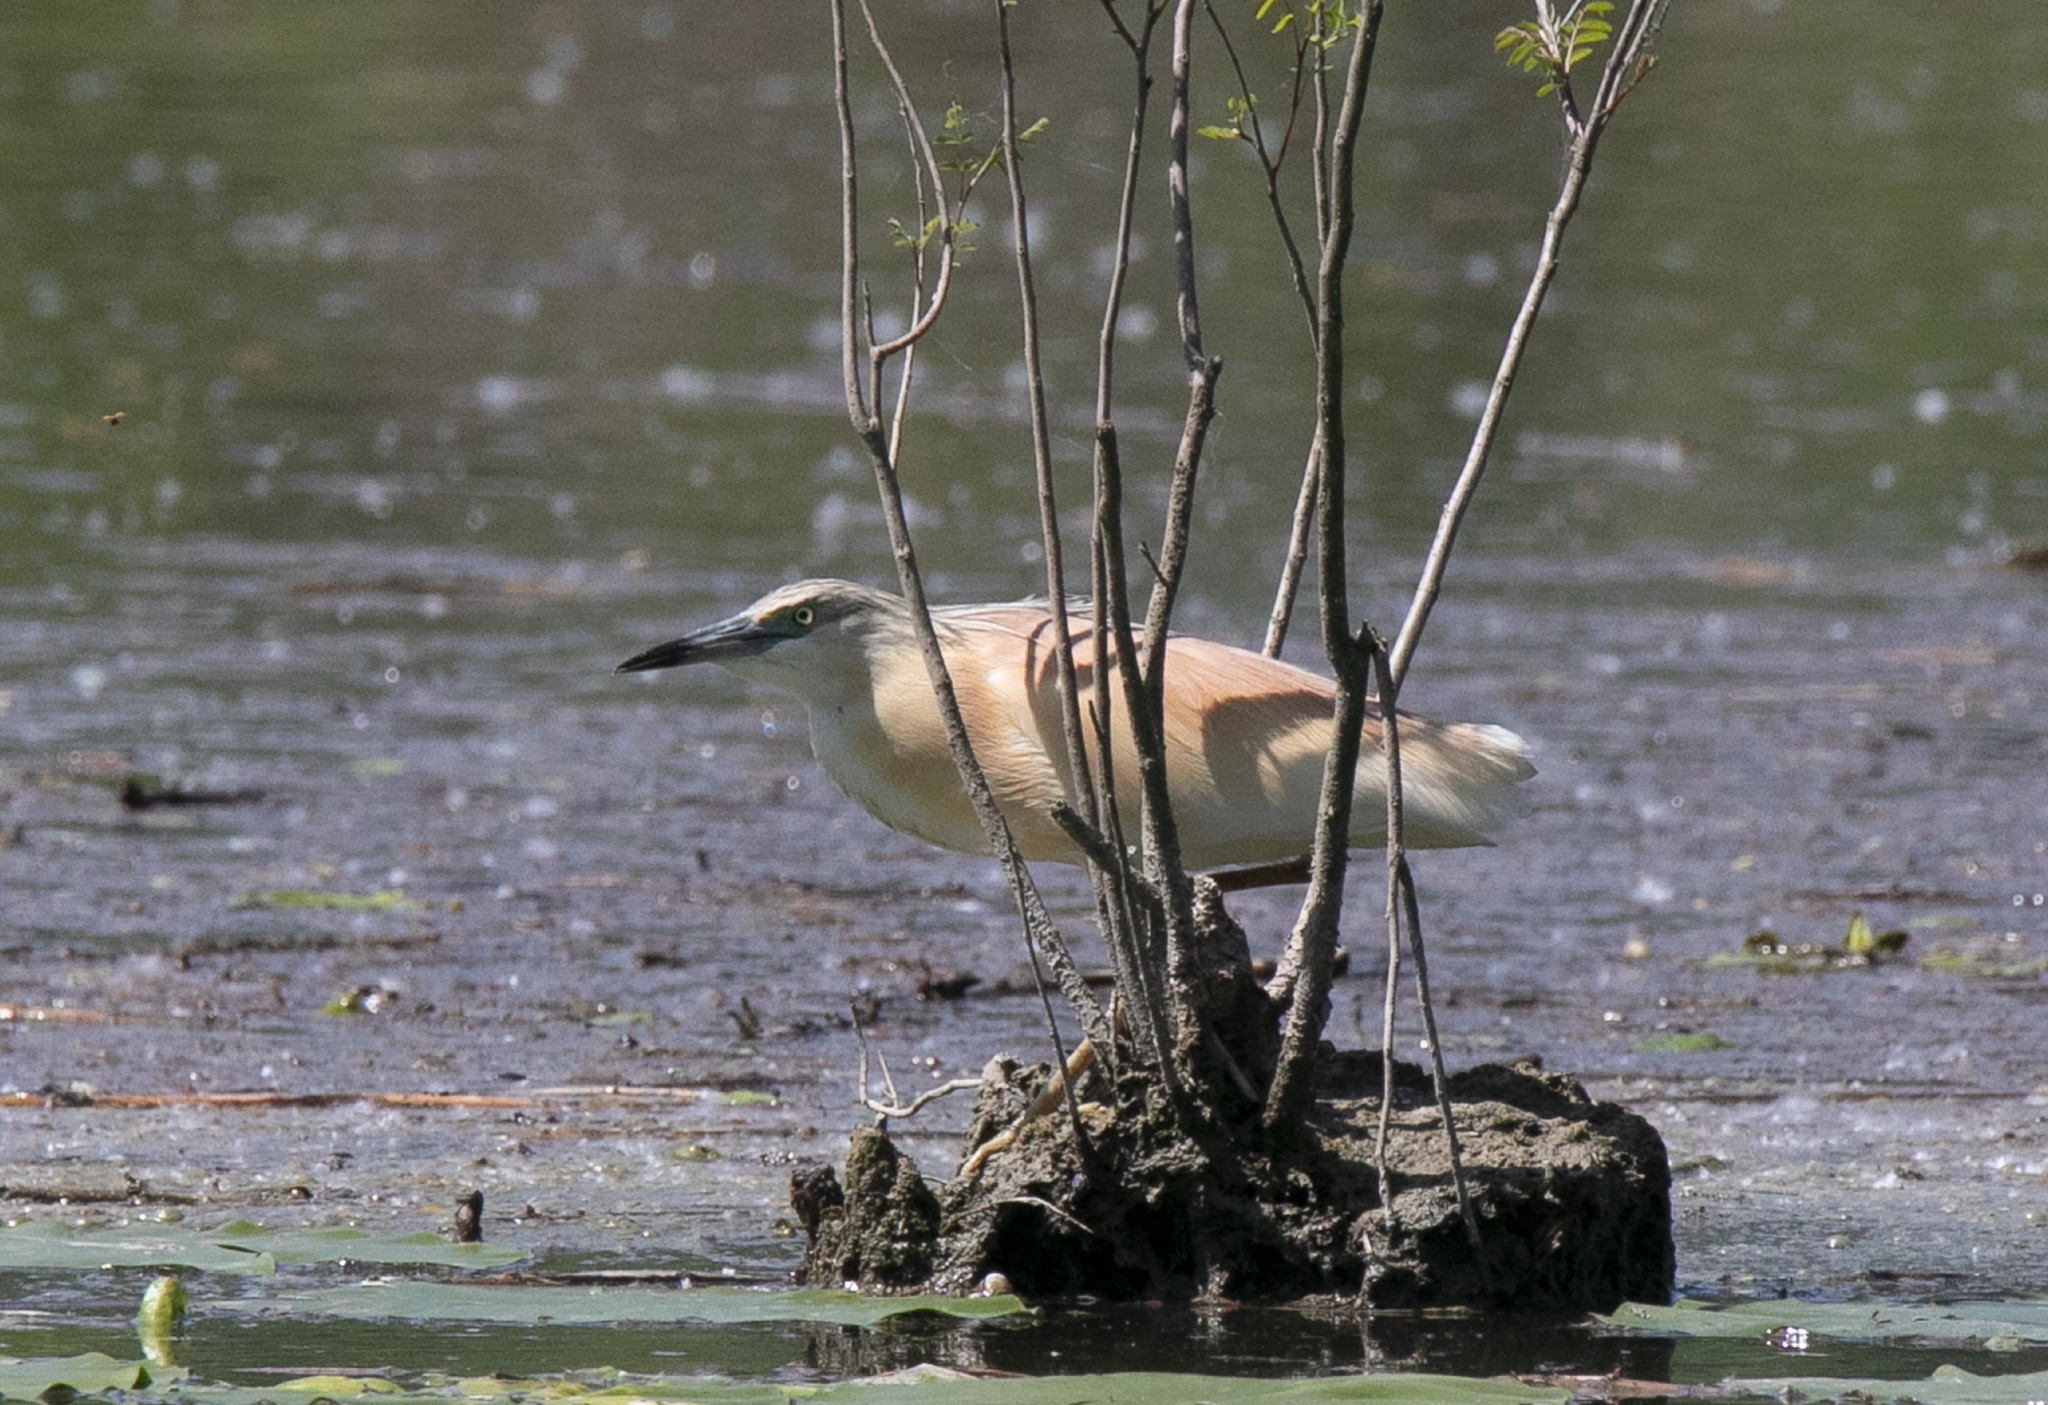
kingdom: Animalia
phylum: Chordata
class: Aves
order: Pelecaniformes
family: Ardeidae
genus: Ardeola
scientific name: Ardeola ralloides
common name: Squacco heron
